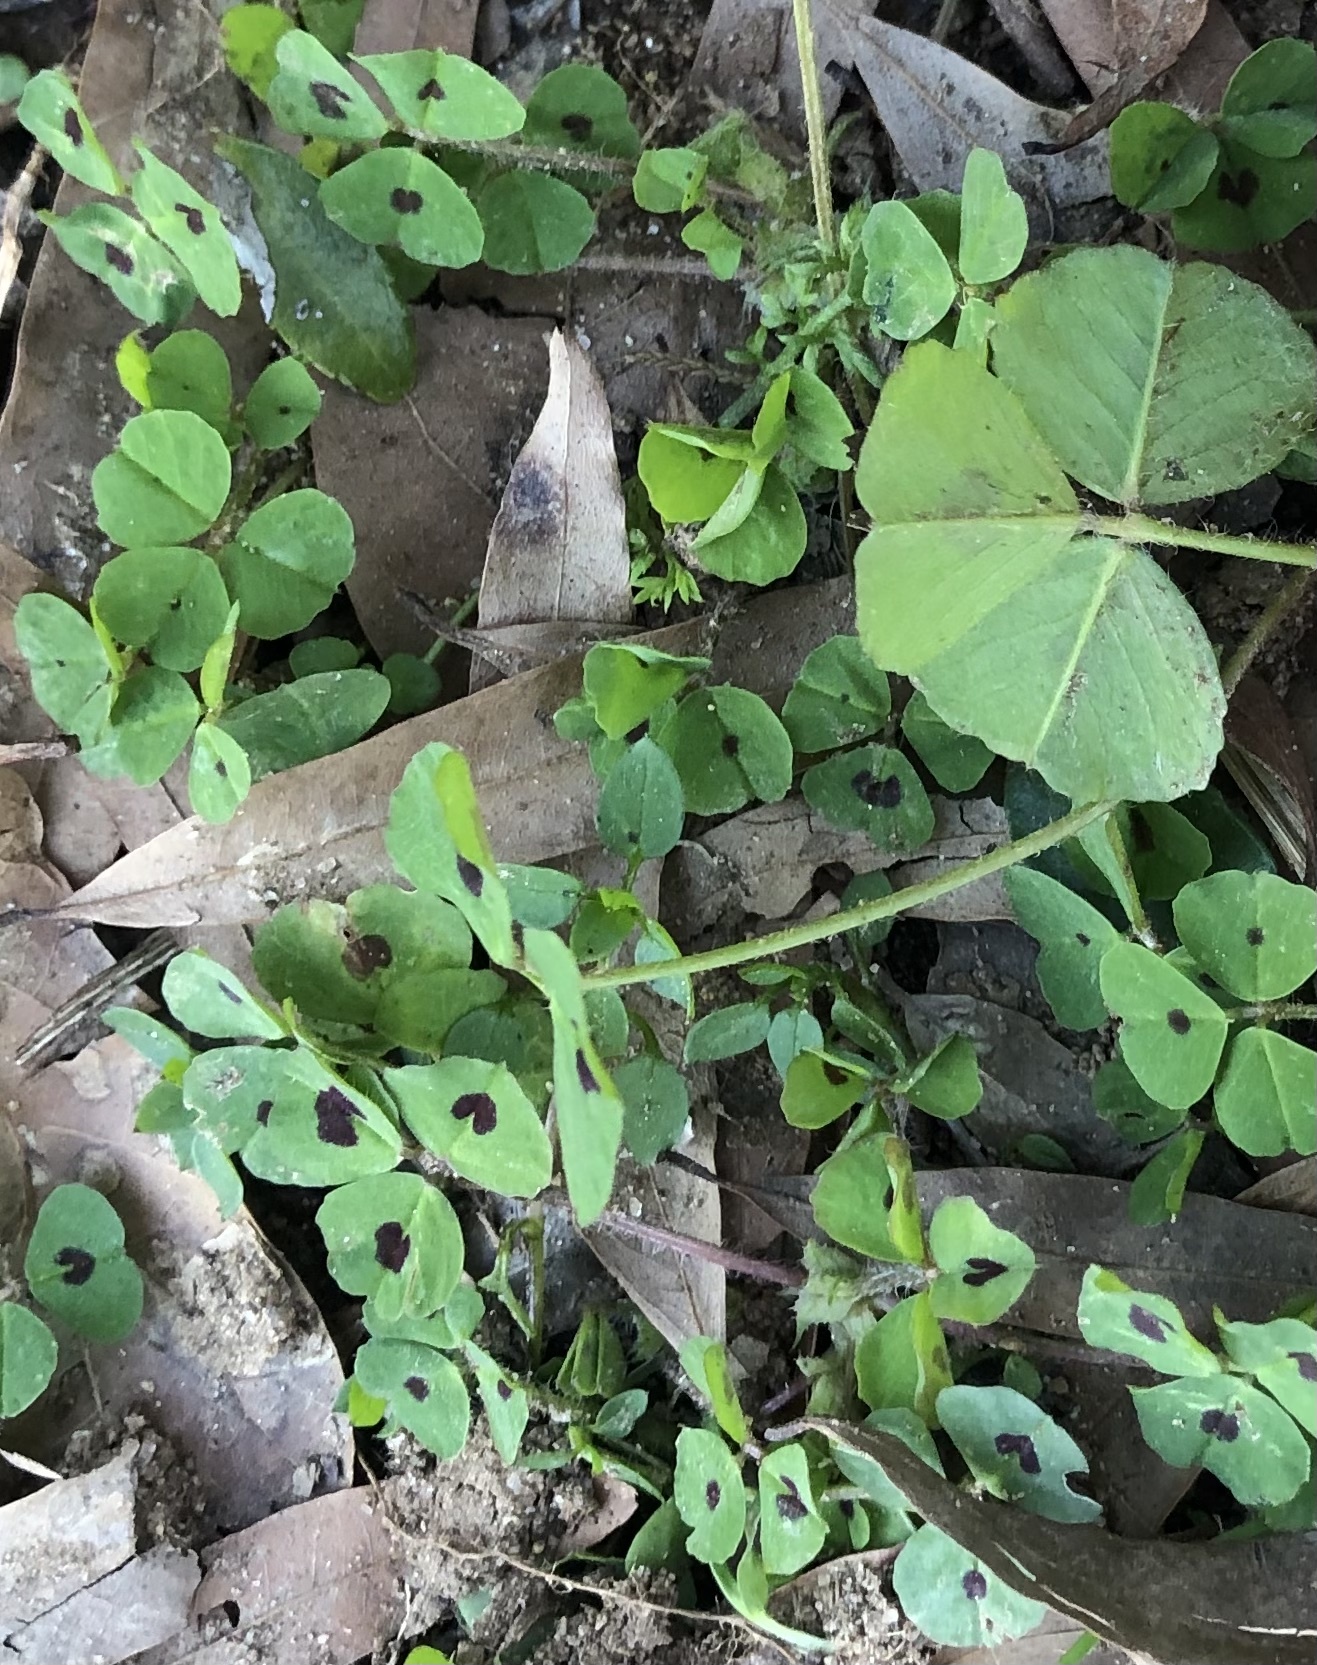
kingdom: Plantae
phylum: Tracheophyta
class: Magnoliopsida
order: Fabales
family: Fabaceae
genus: Medicago
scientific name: Medicago arabica
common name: Spotted medick
